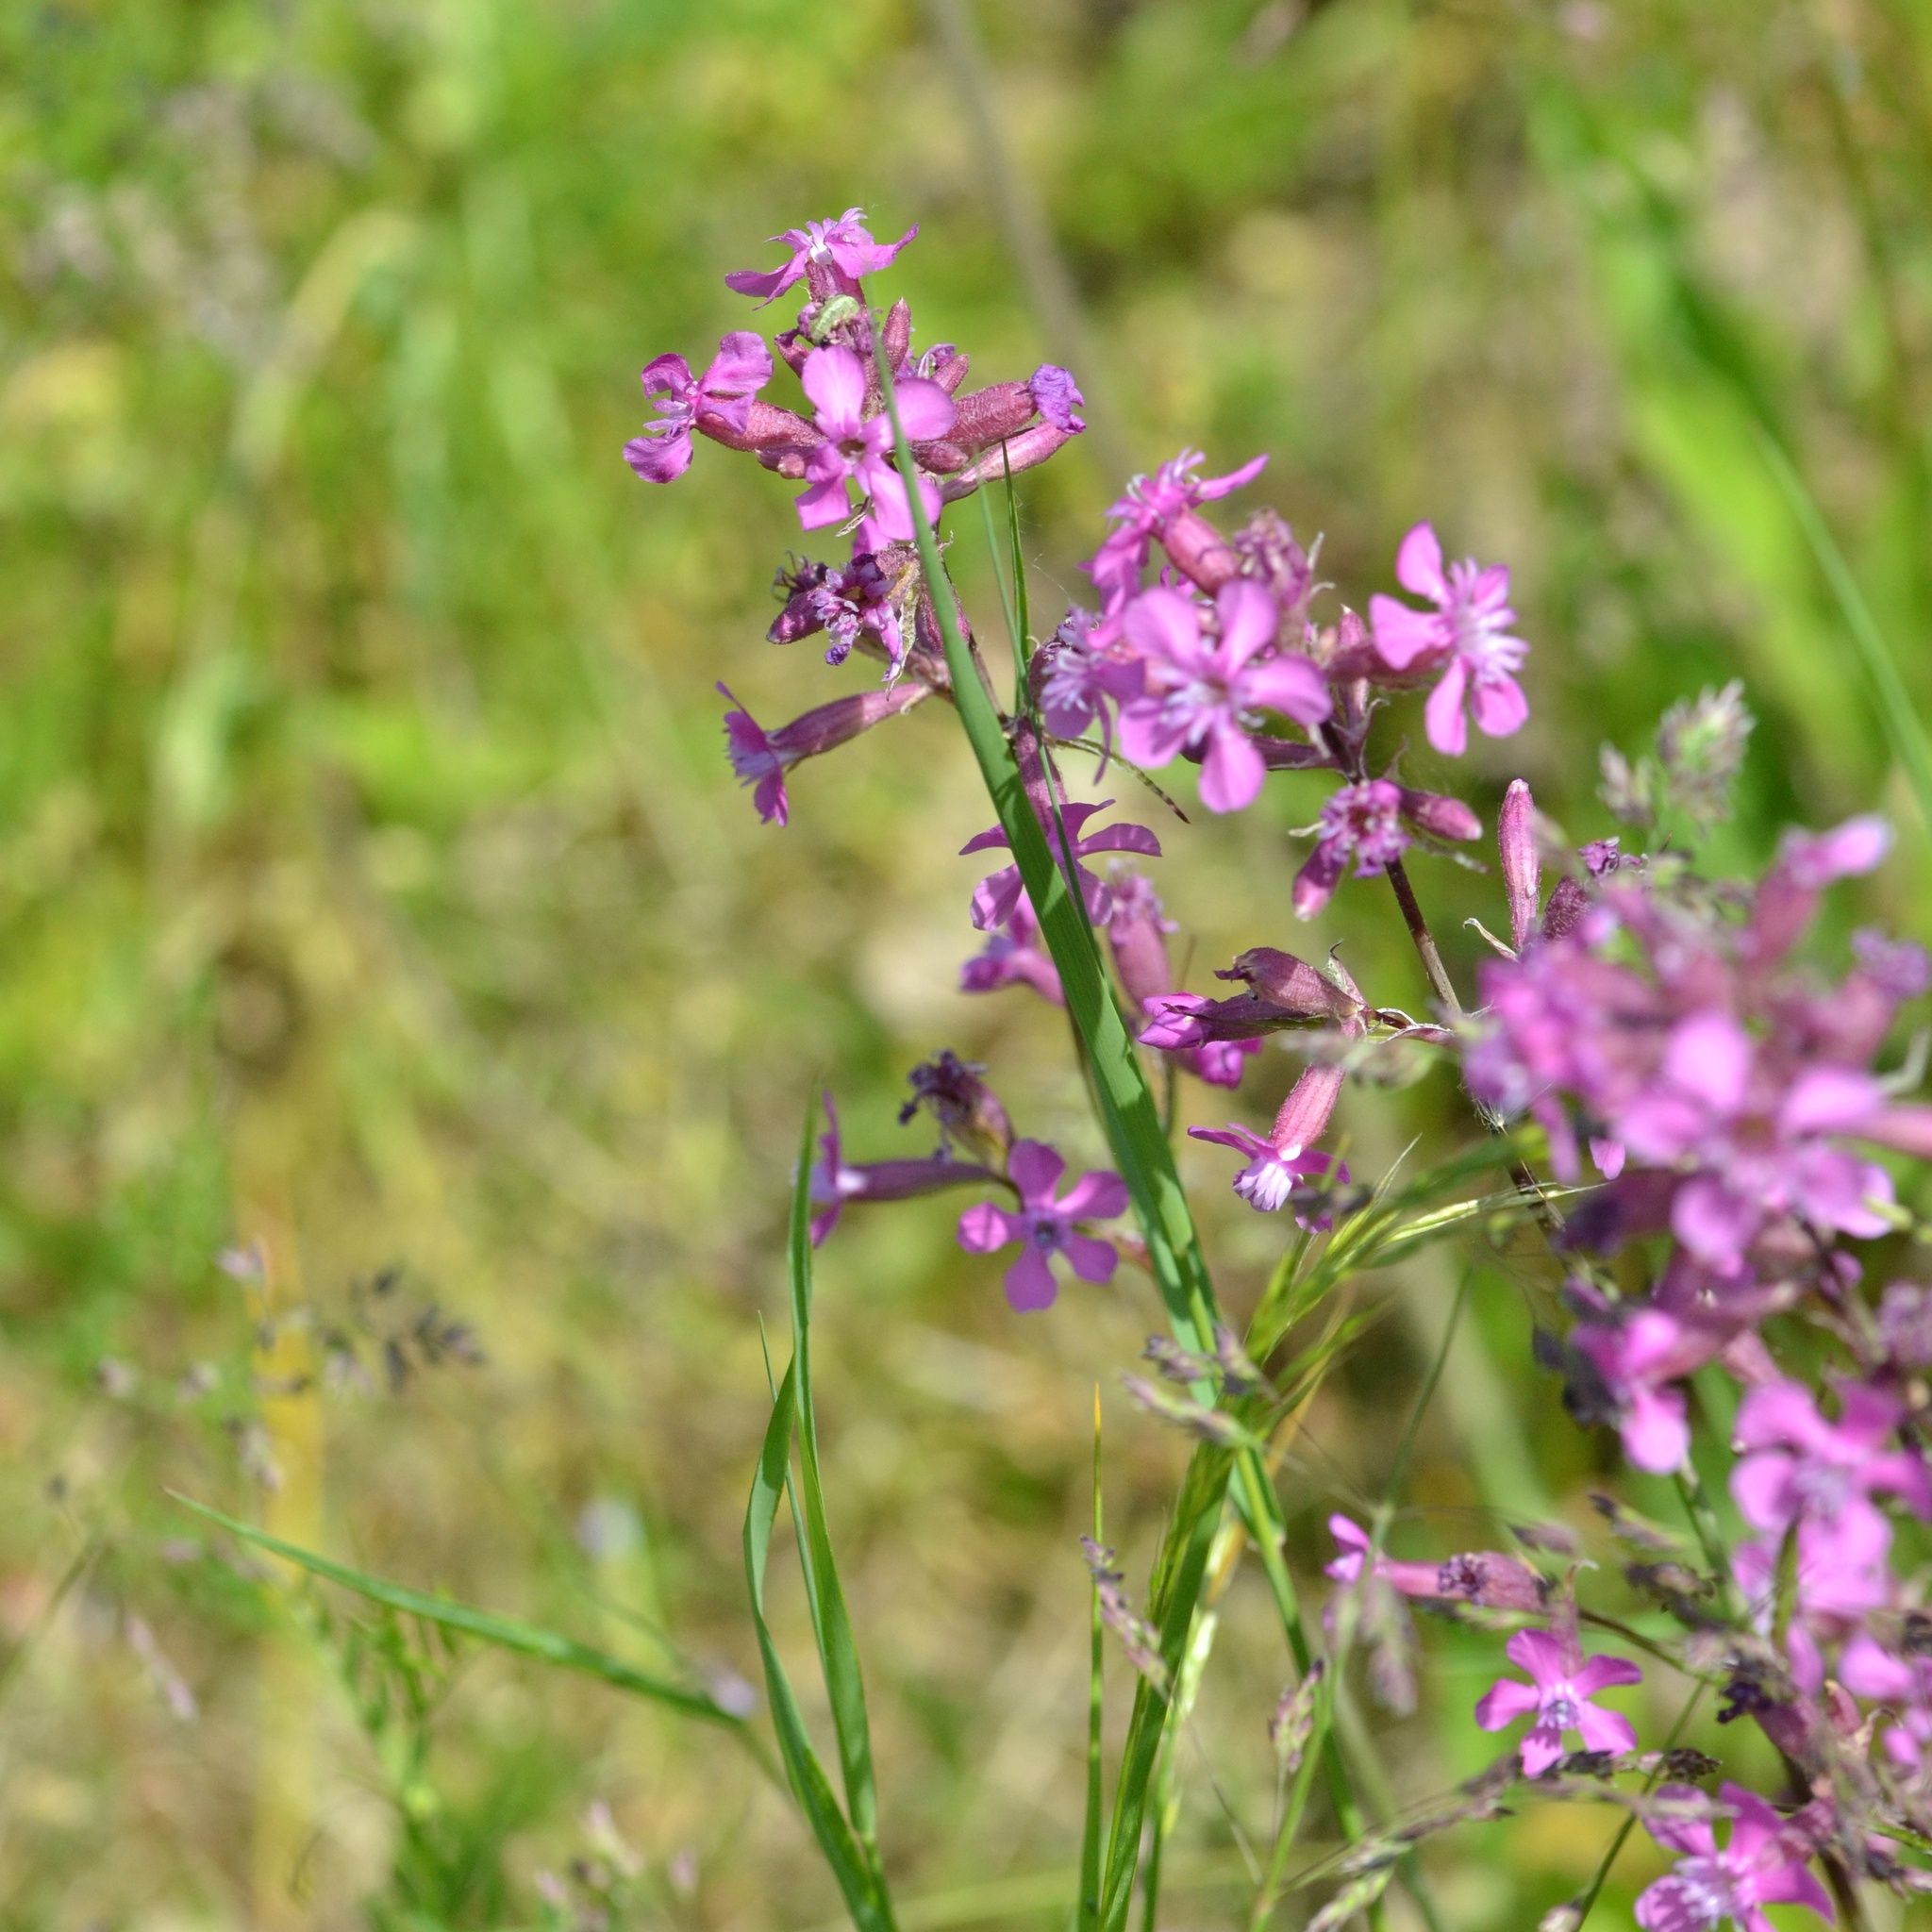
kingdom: Plantae
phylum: Tracheophyta
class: Magnoliopsida
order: Caryophyllales
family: Caryophyllaceae
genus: Viscaria
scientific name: Viscaria vulgaris
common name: Clammy campion
